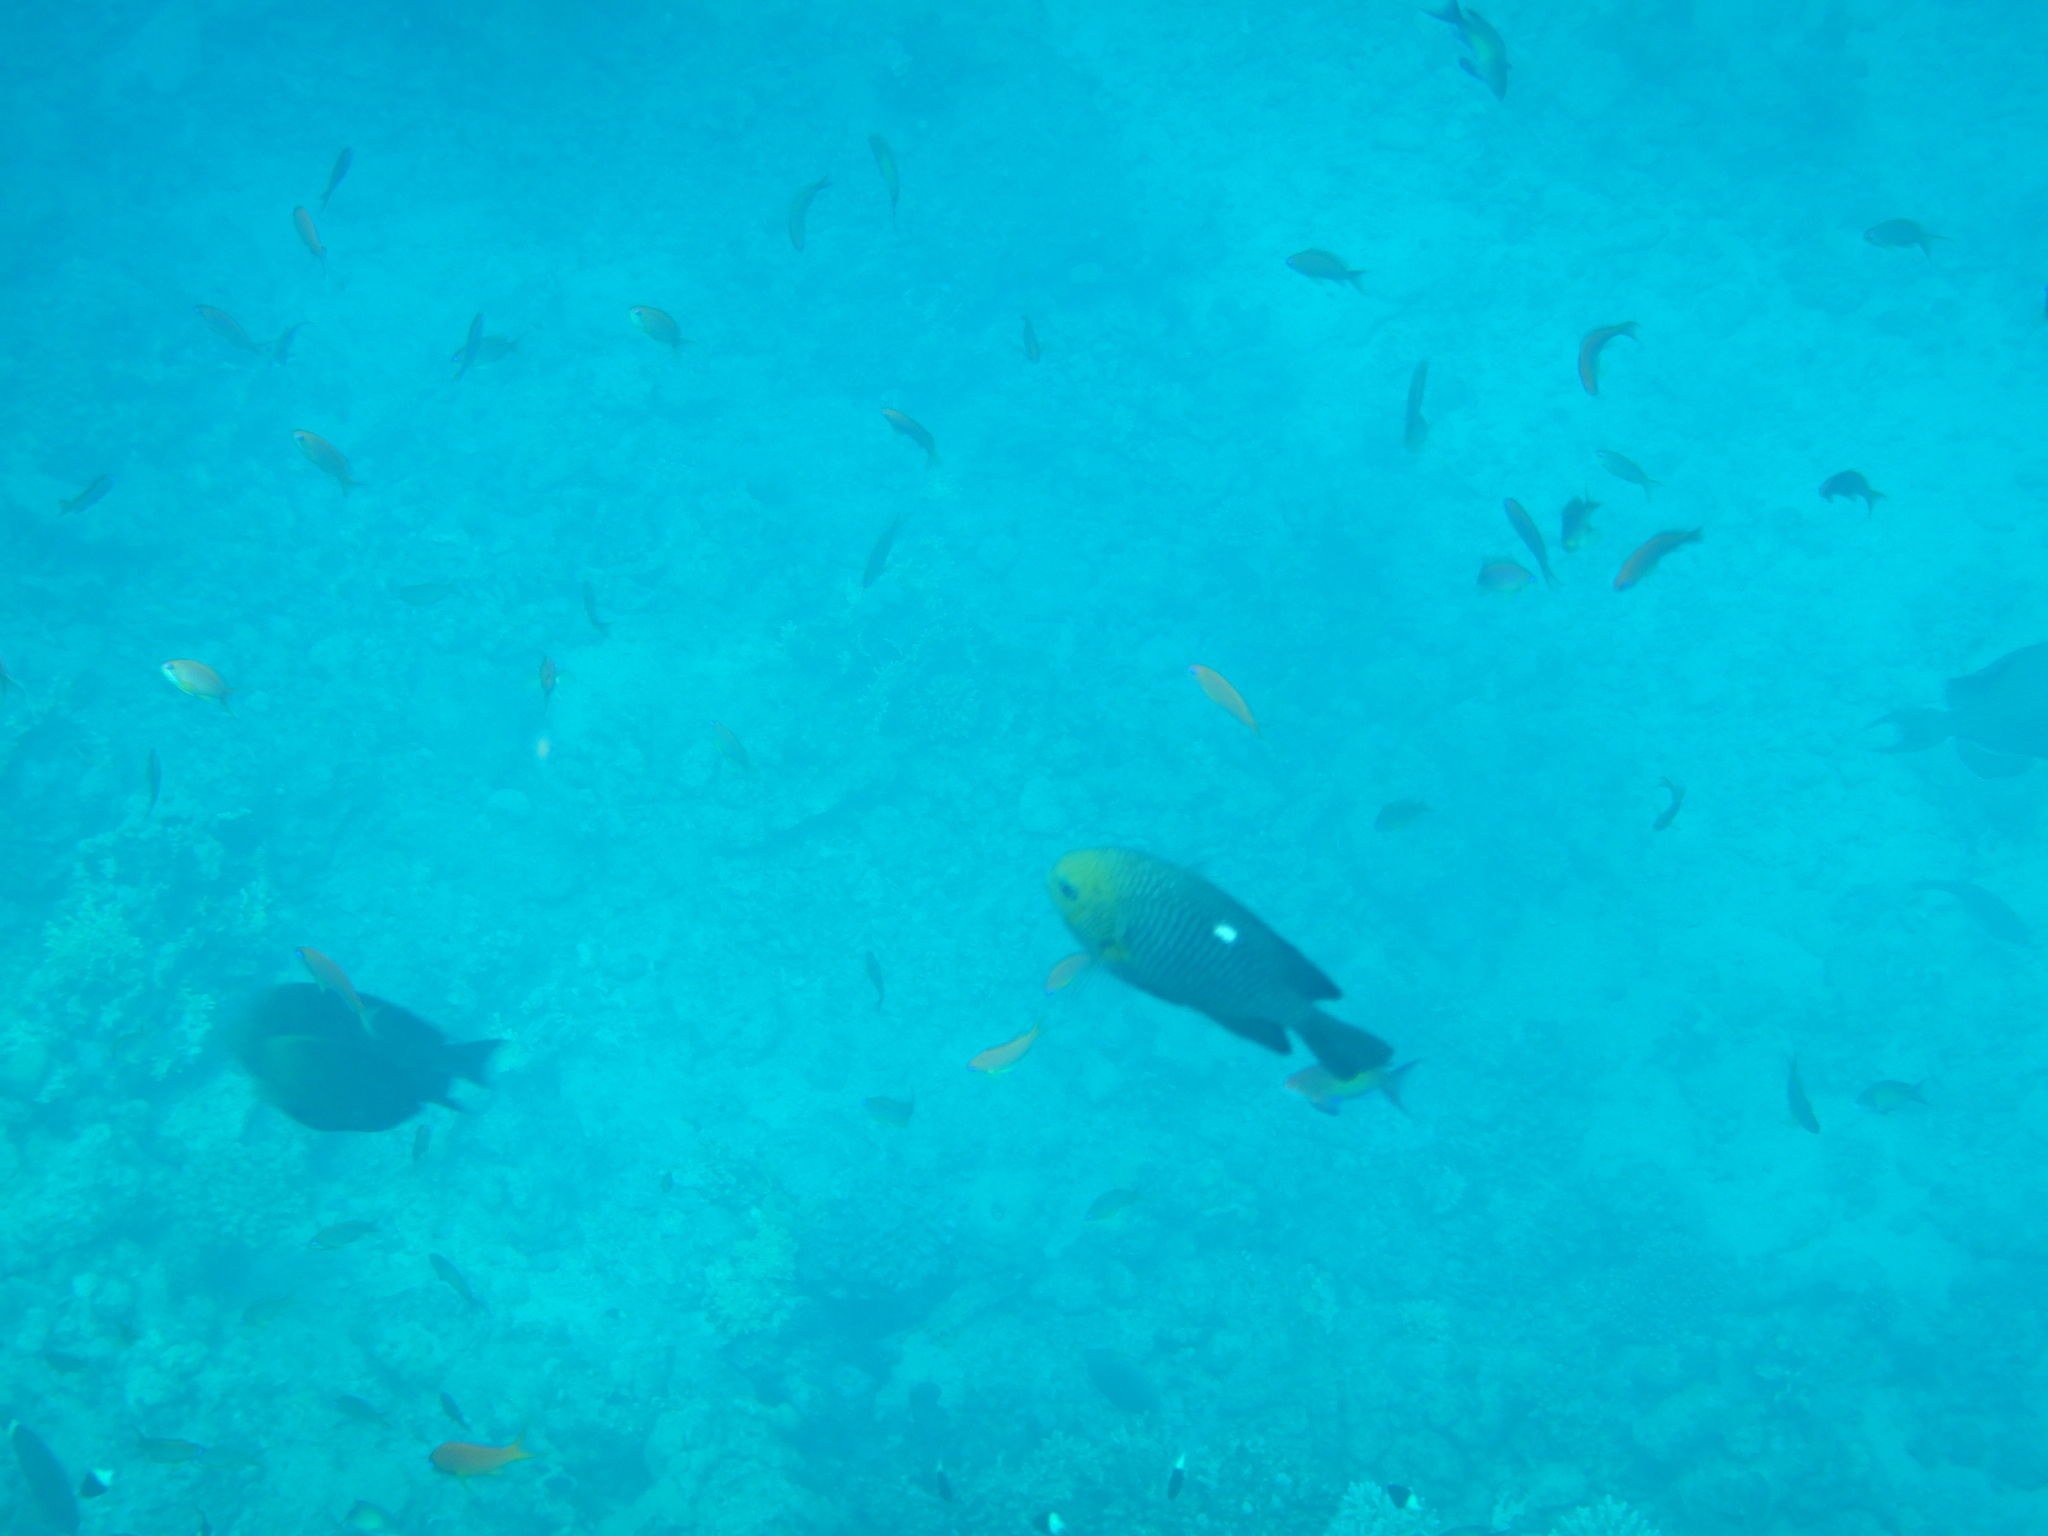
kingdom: Animalia
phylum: Chordata
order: Perciformes
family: Pomacentridae
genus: Dascyllus
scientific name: Dascyllus trimaculatus
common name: Threespot dascyllus
